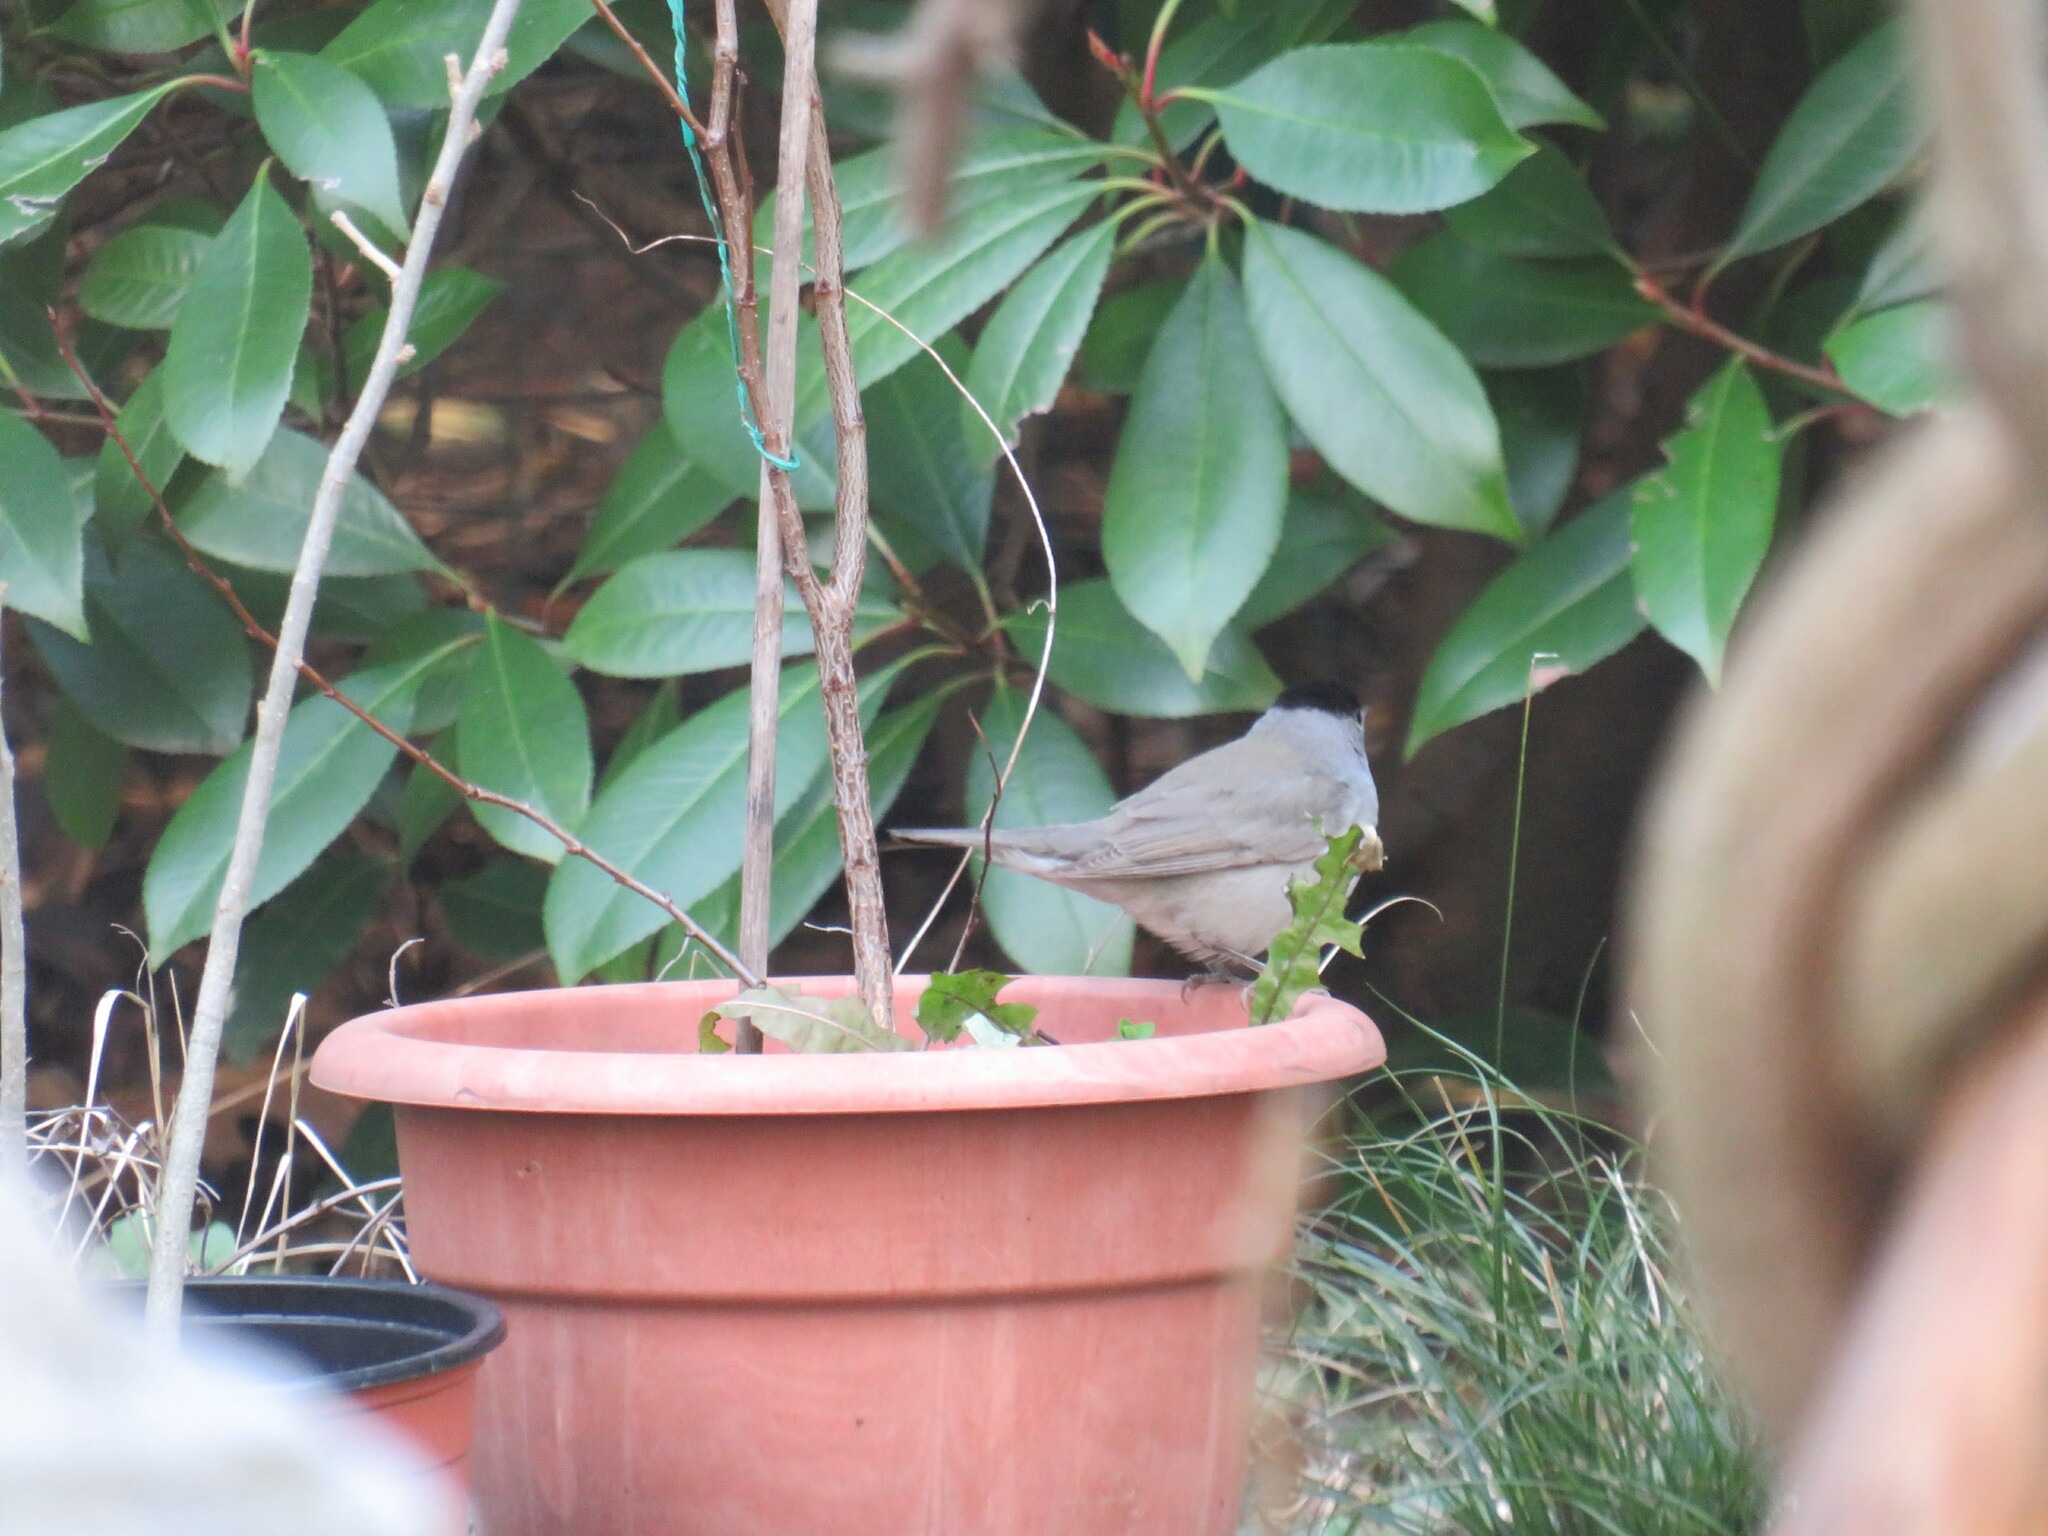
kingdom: Animalia
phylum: Chordata
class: Aves
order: Passeriformes
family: Sylviidae
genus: Sylvia
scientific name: Sylvia atricapilla
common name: Eurasian blackcap
